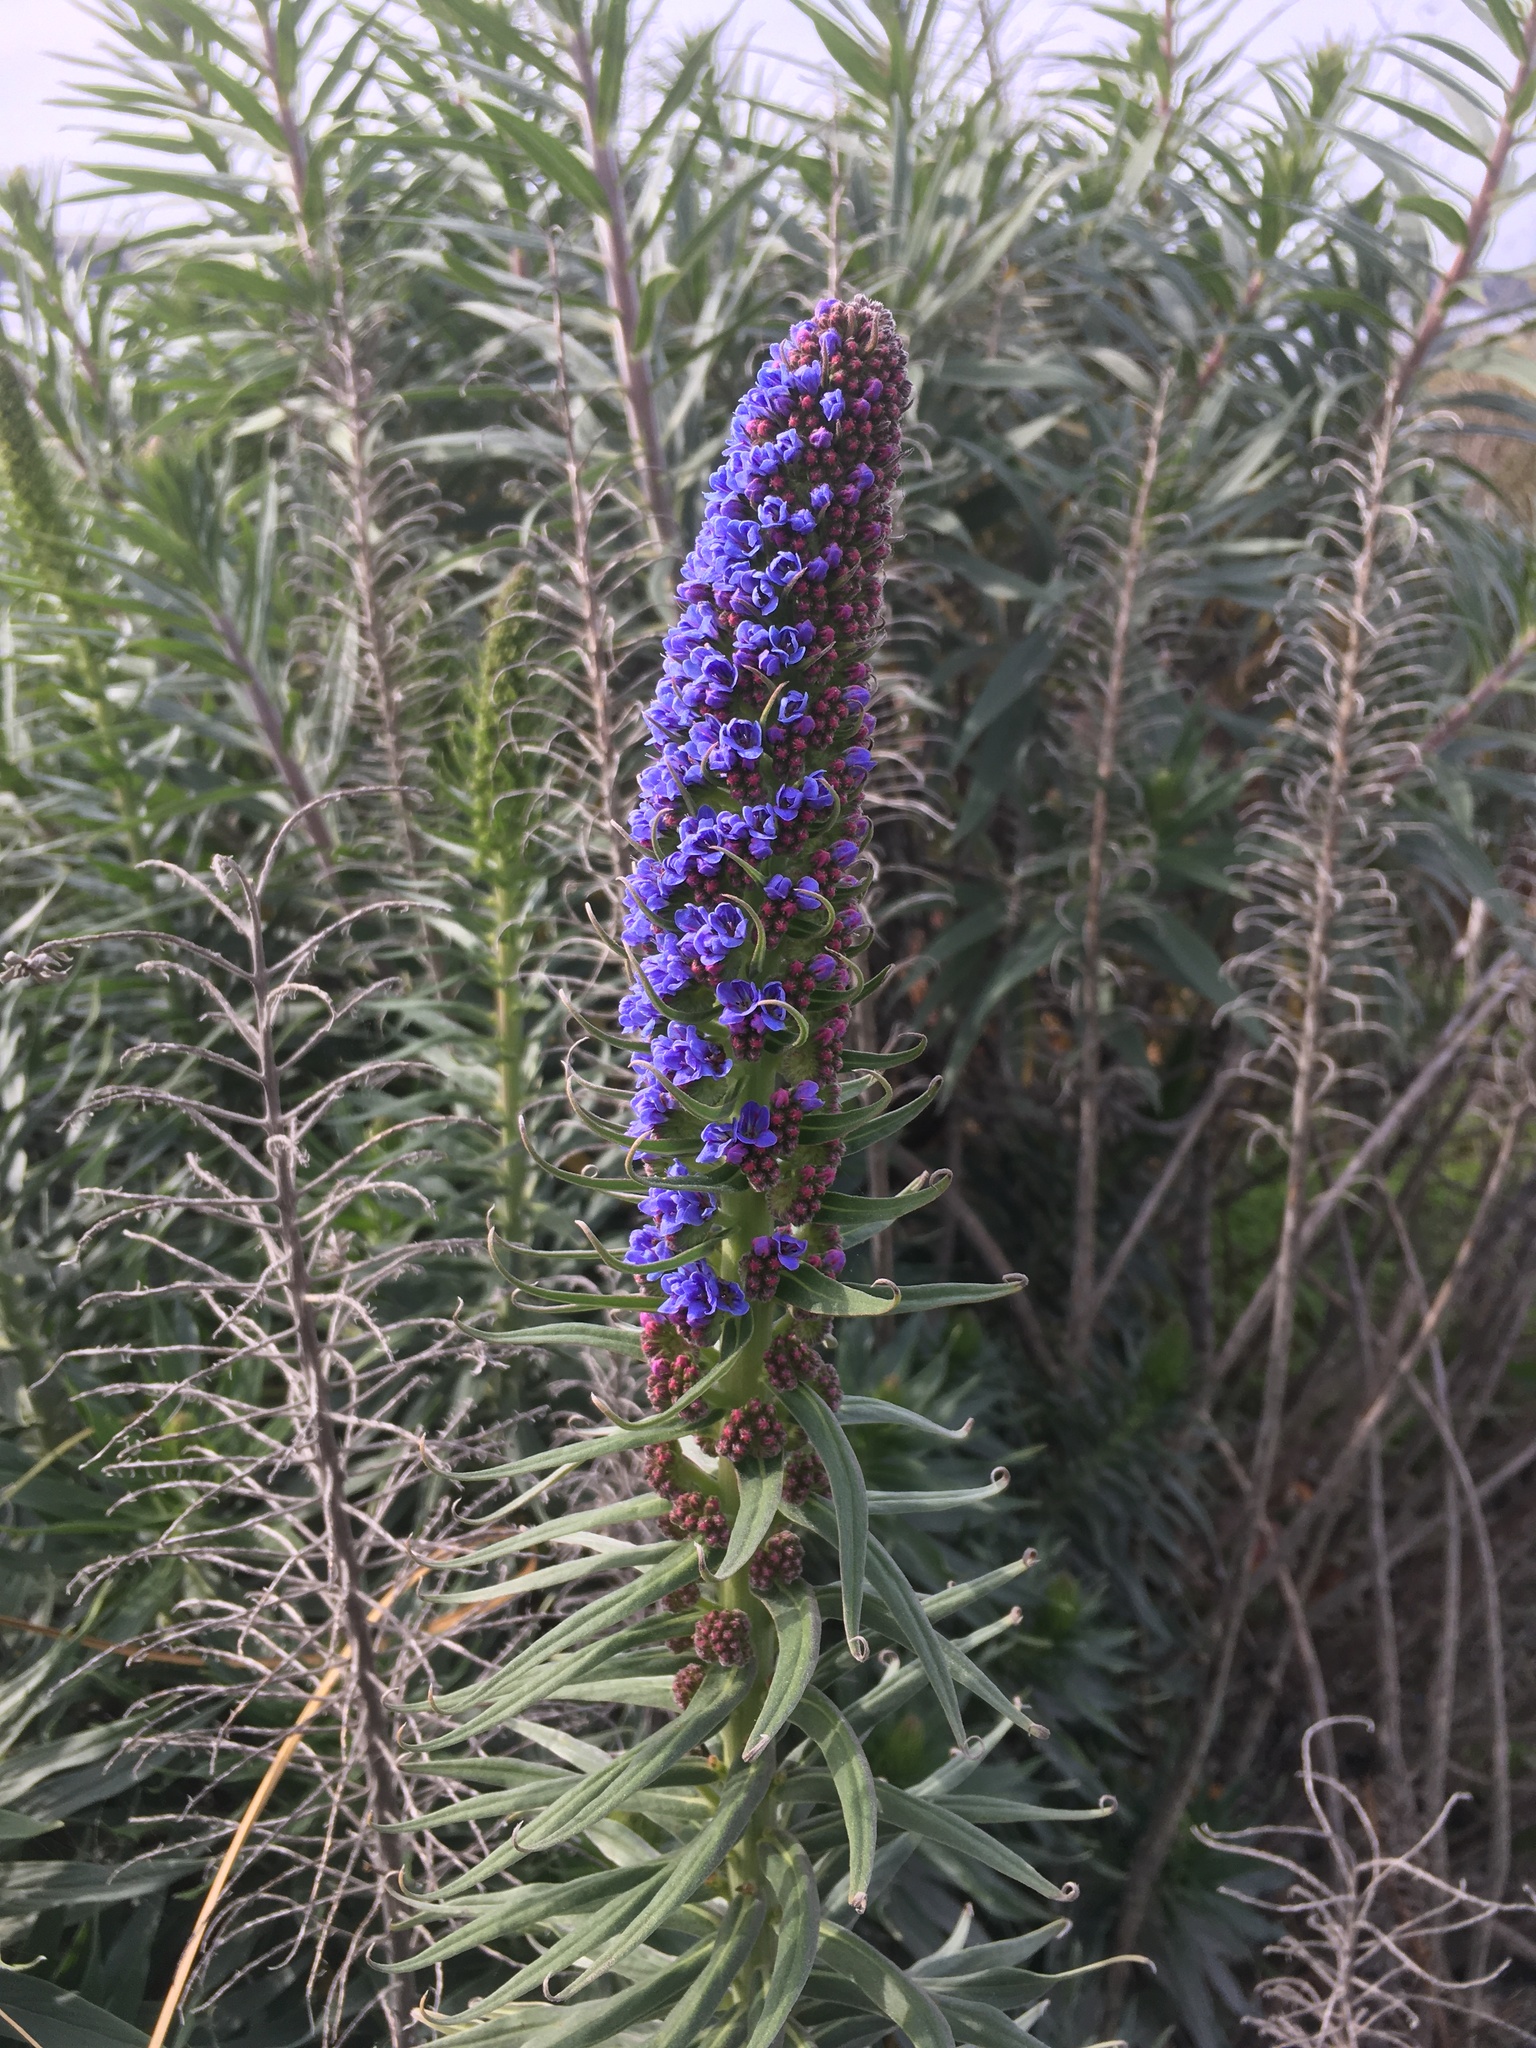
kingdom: Plantae
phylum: Tracheophyta
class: Magnoliopsida
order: Boraginales
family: Boraginaceae
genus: Echium
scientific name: Echium candicans
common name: Pride of madeira
